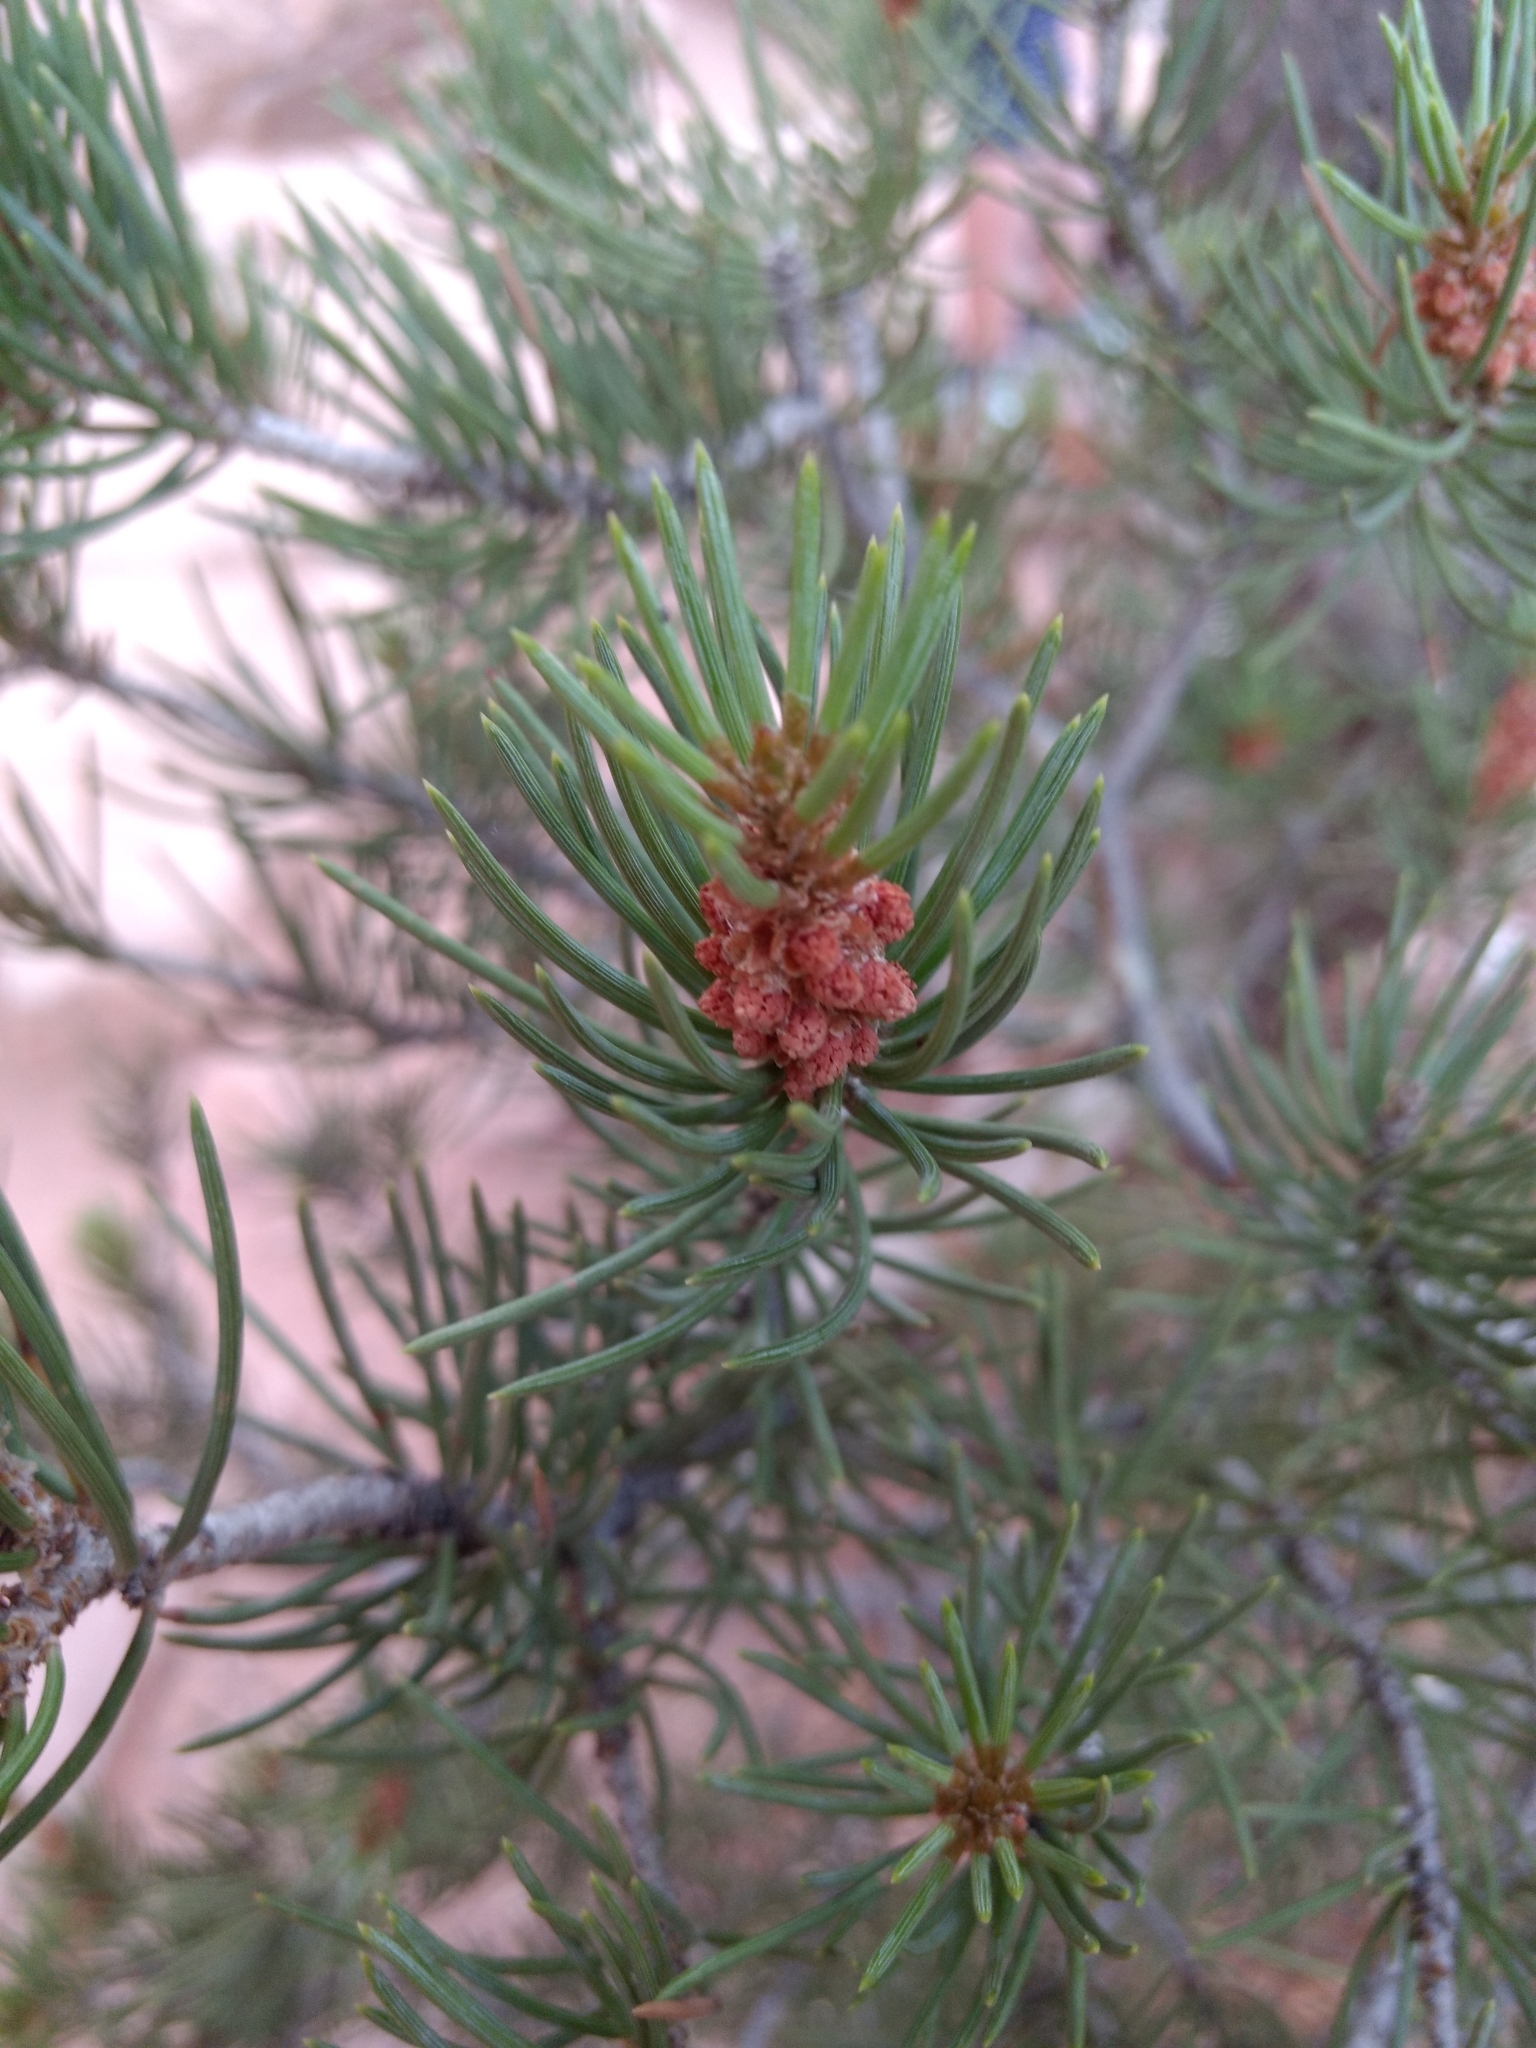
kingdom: Plantae
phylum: Tracheophyta
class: Pinopsida
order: Pinales
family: Pinaceae
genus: Pinus
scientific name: Pinus edulis
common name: Colorado pinyon
